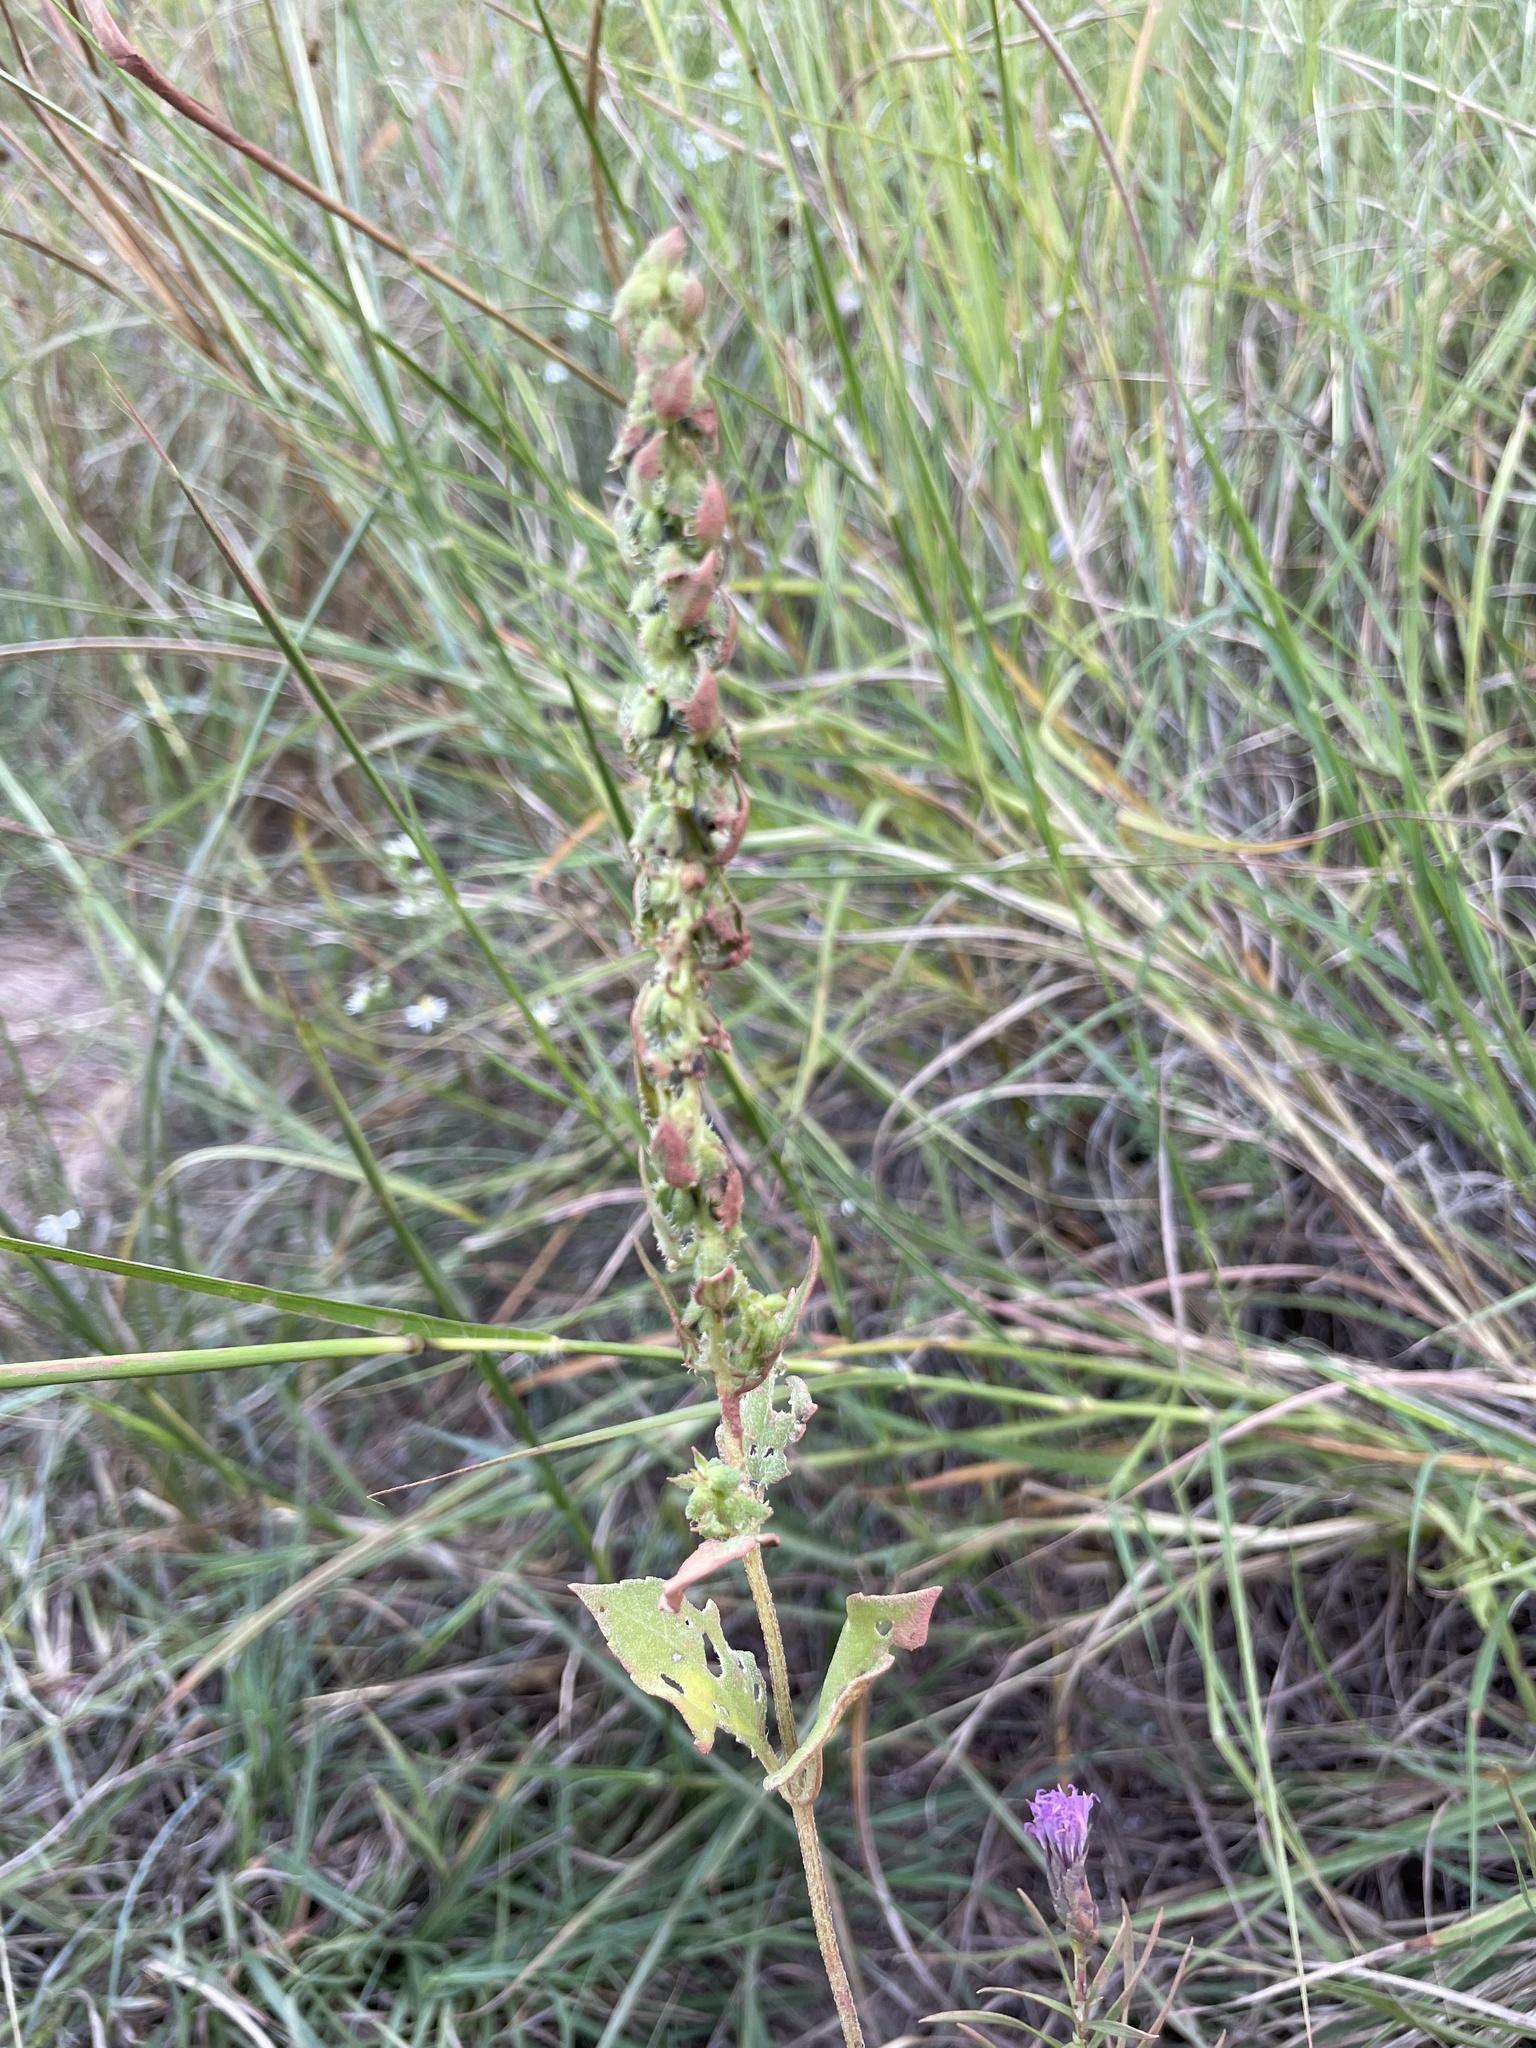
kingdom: Plantae
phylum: Tracheophyta
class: Magnoliopsida
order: Asterales
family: Asteraceae
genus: Iva
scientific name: Iva annua
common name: Marsh-elder
